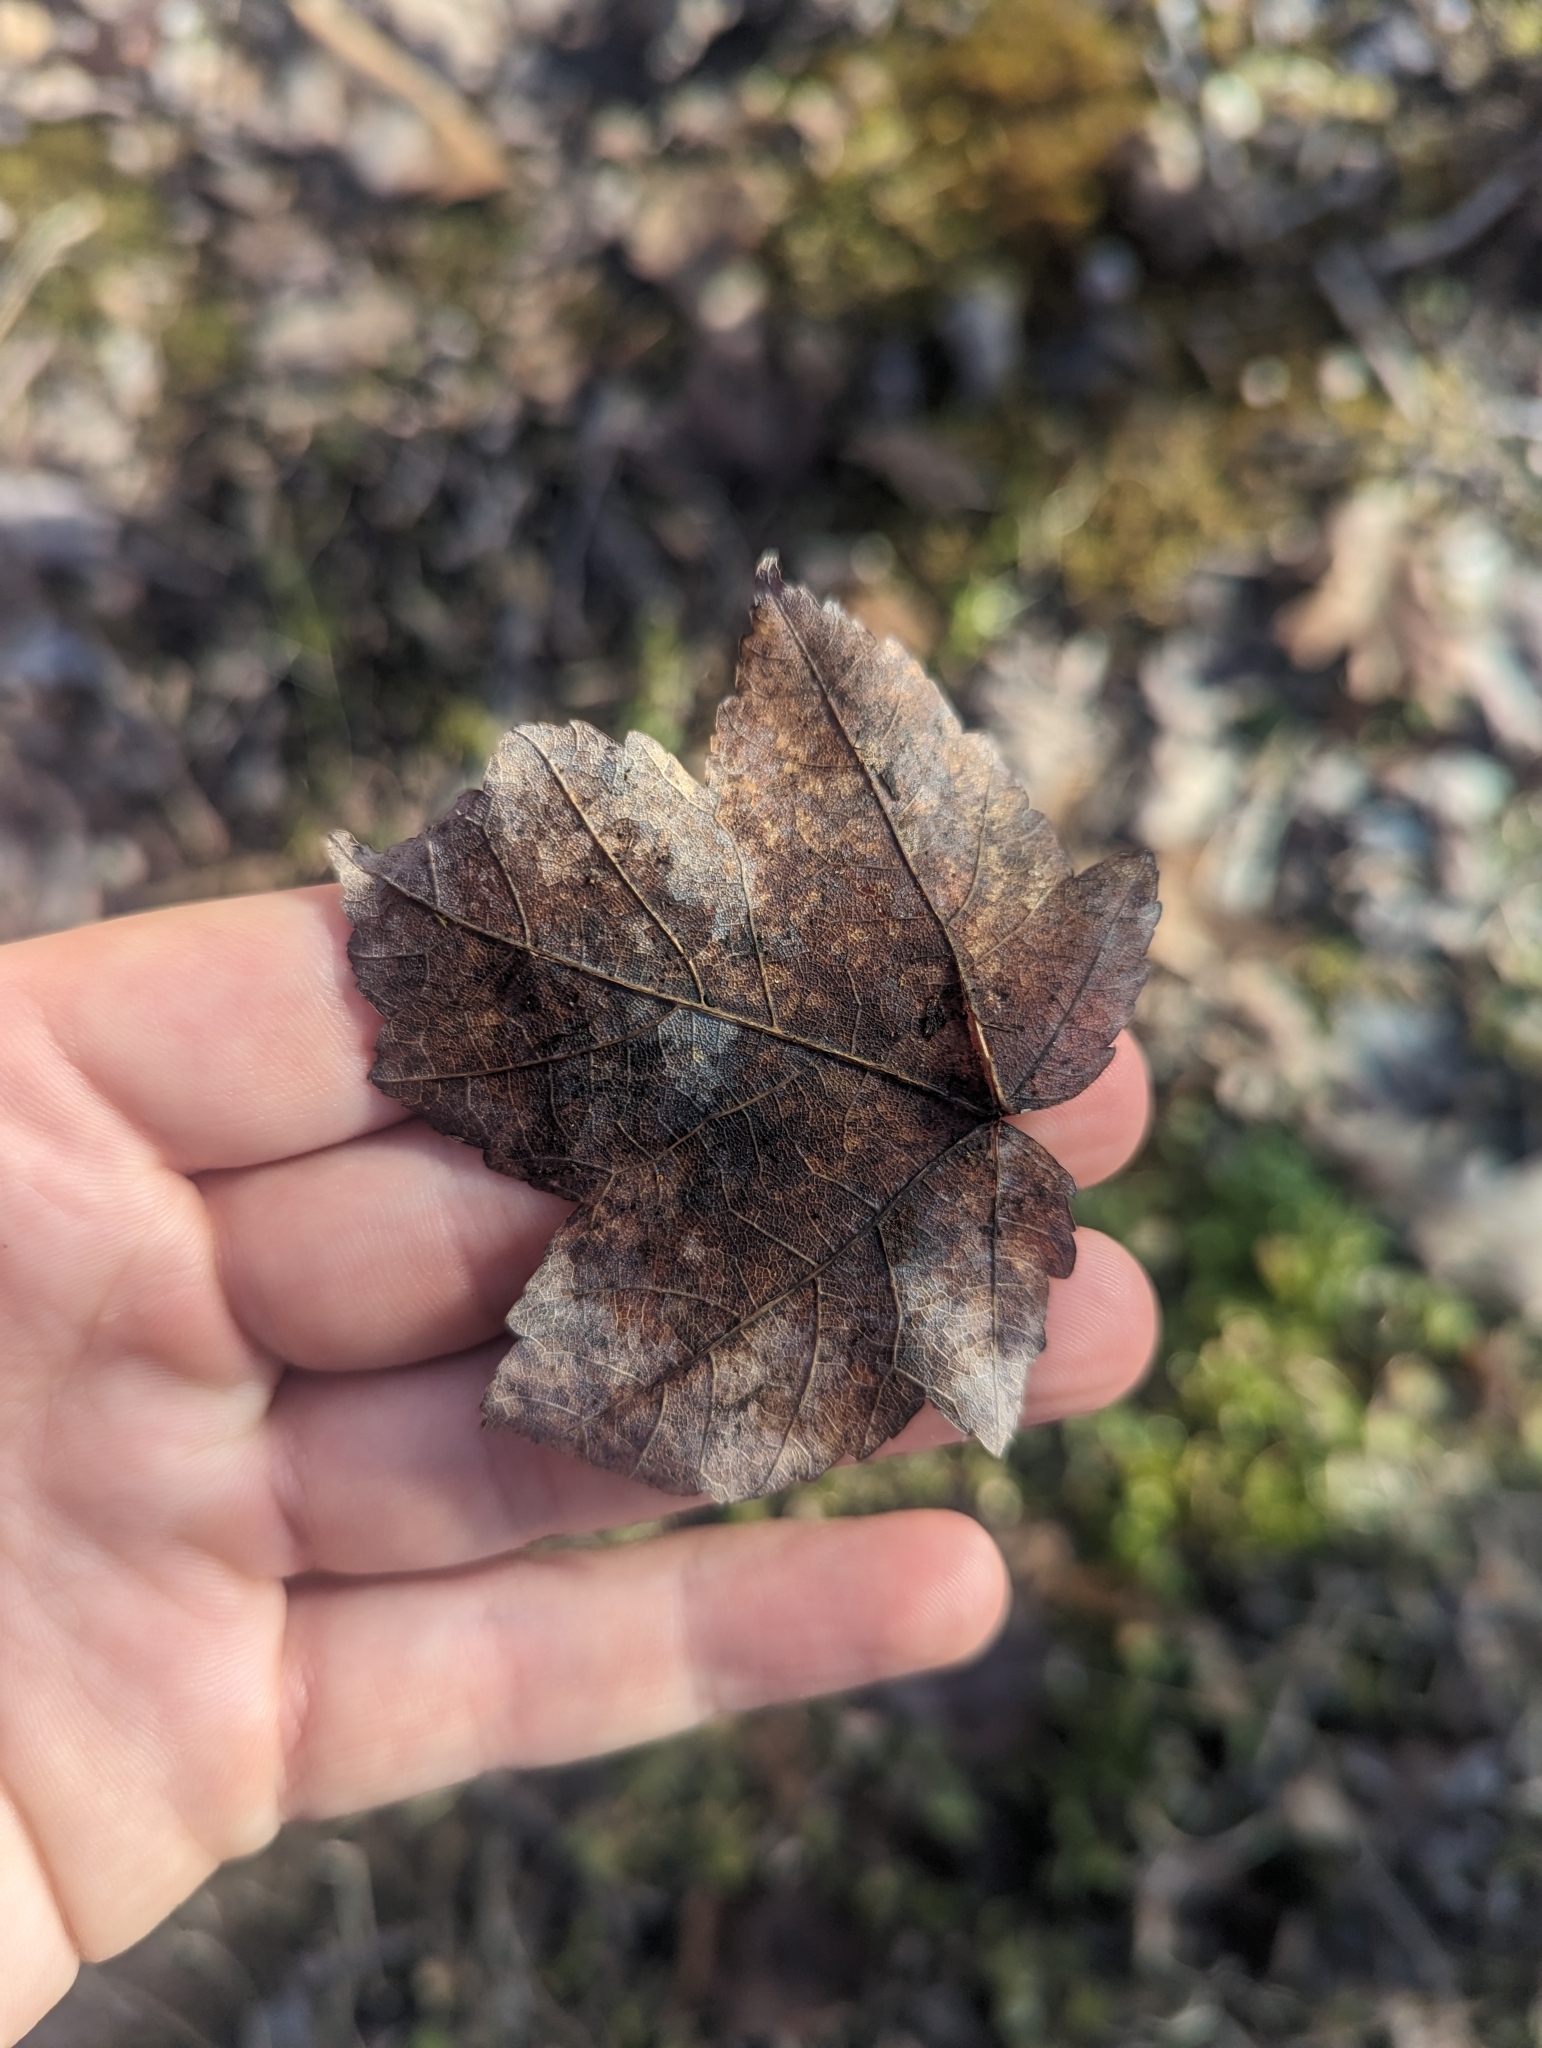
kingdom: Plantae
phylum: Tracheophyta
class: Magnoliopsida
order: Sapindales
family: Sapindaceae
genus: Acer
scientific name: Acer rubrum
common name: Red maple
